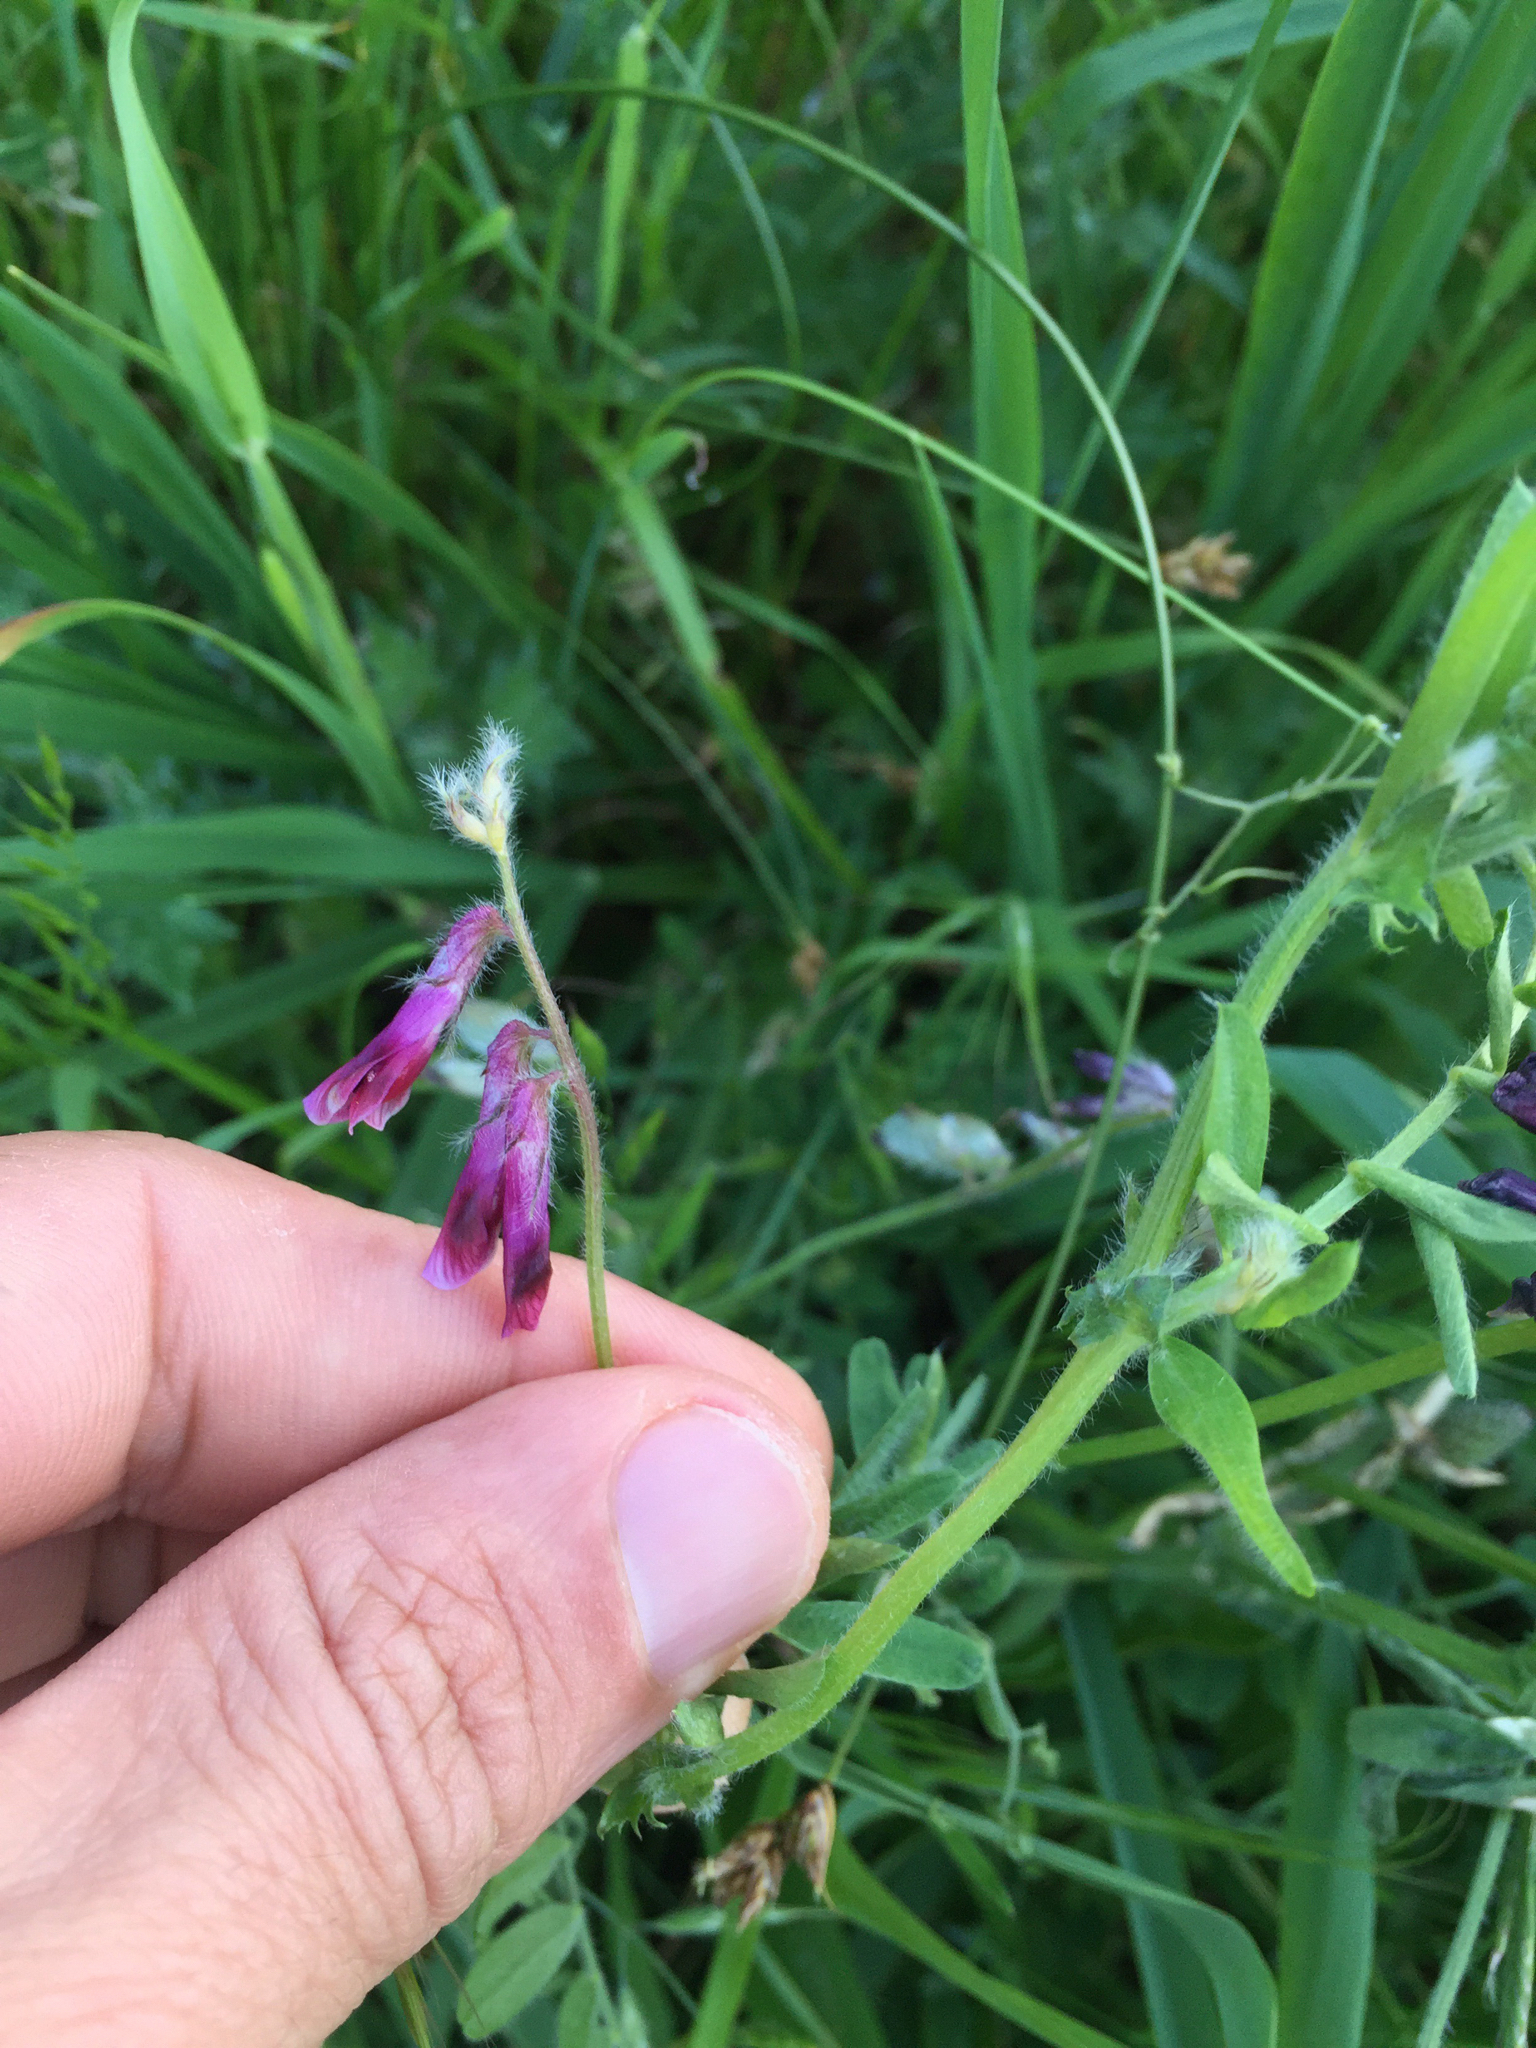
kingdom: Plantae
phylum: Tracheophyta
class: Magnoliopsida
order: Fabales
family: Fabaceae
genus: Vicia
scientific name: Vicia benghalensis
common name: Purple vetch
